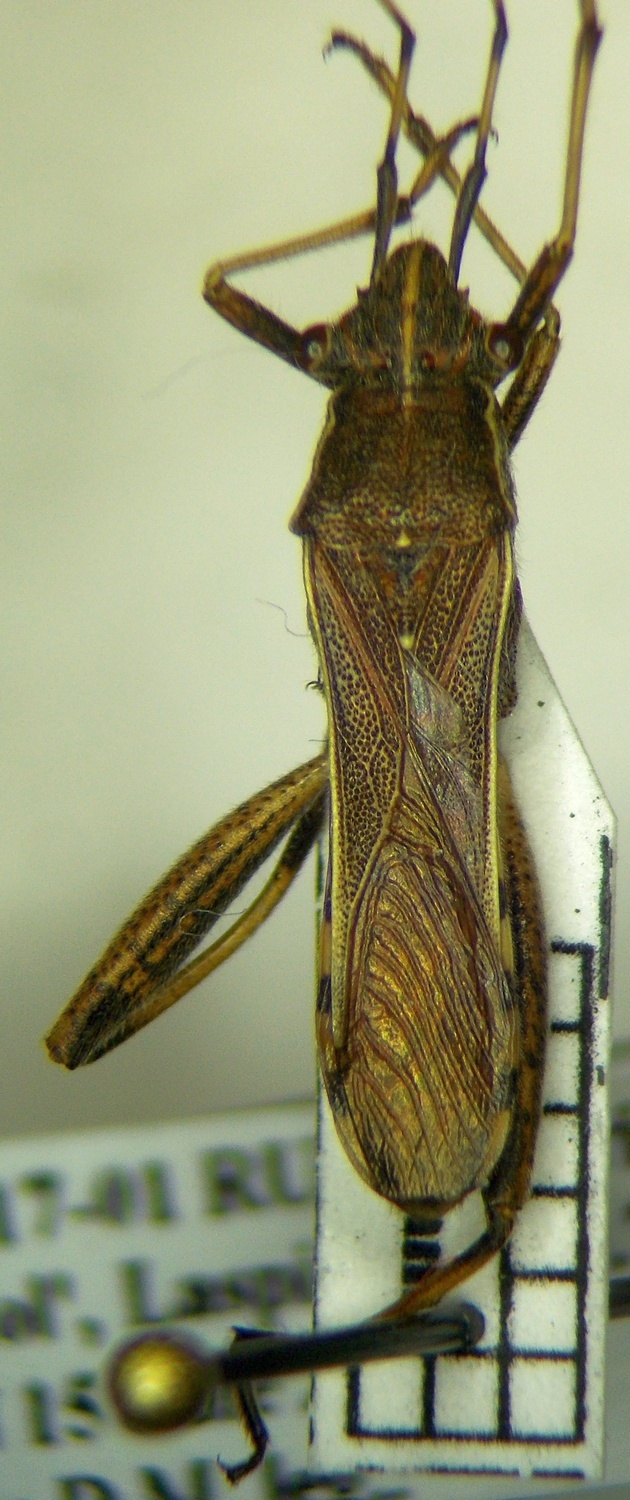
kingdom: Animalia
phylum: Arthropoda
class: Insecta
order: Hemiptera
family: Alydidae
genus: Camptopus
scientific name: Camptopus lateralis
